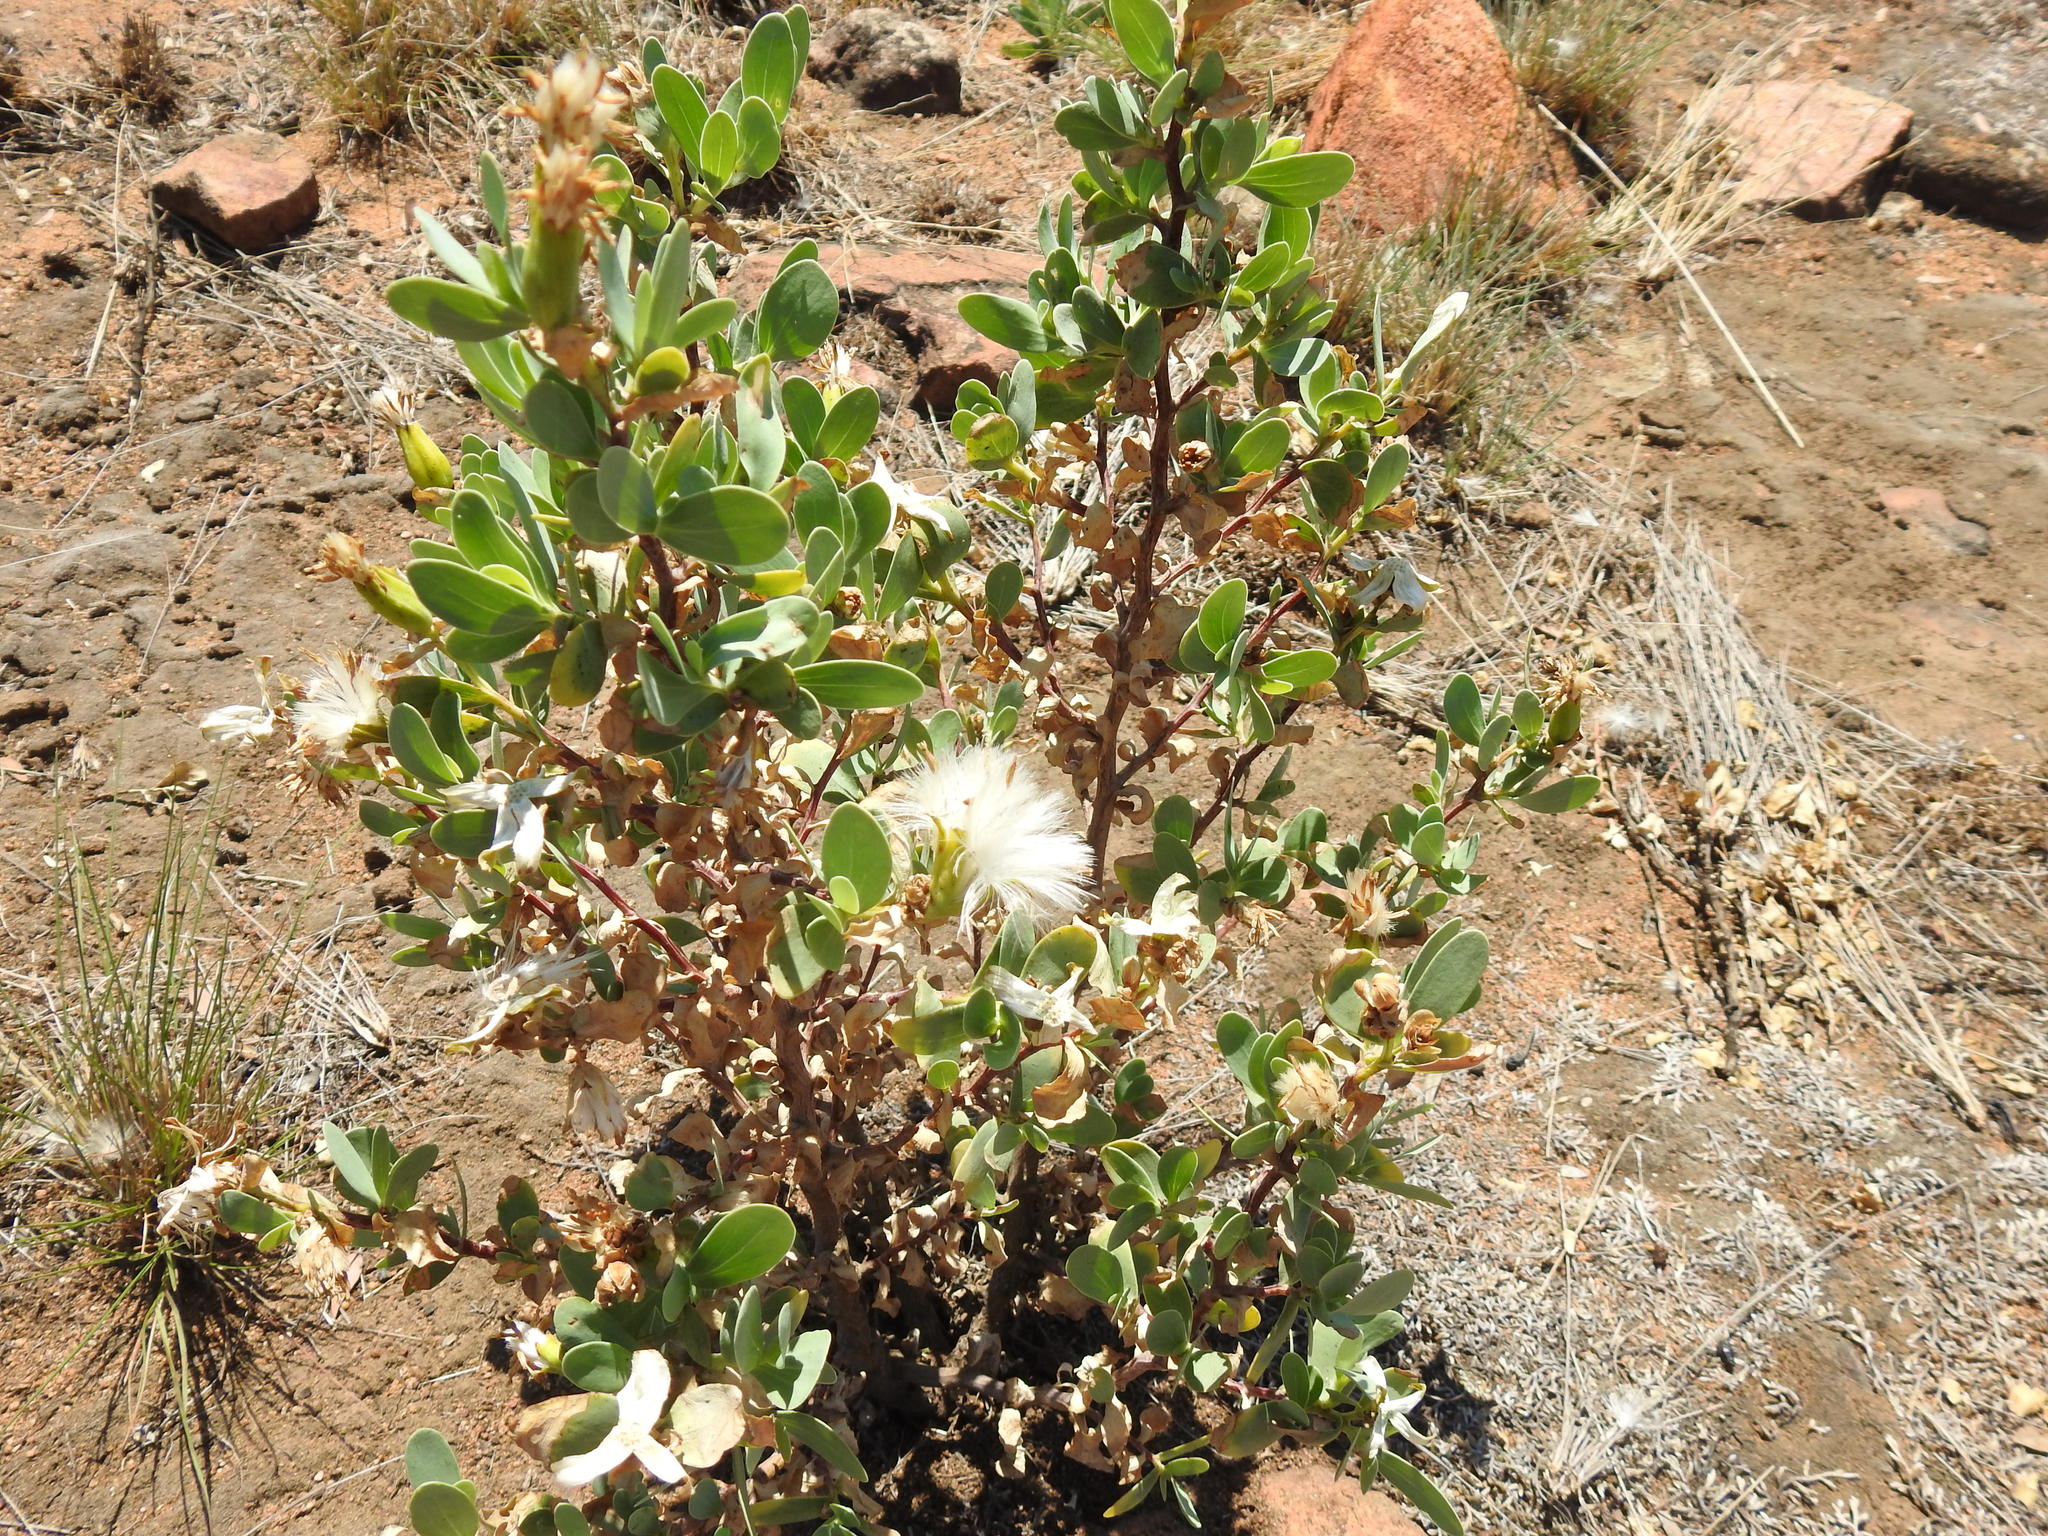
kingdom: Plantae
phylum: Tracheophyta
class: Magnoliopsida
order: Asterales
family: Asteraceae
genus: Lopholaena
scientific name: Lopholaena coriifolia
